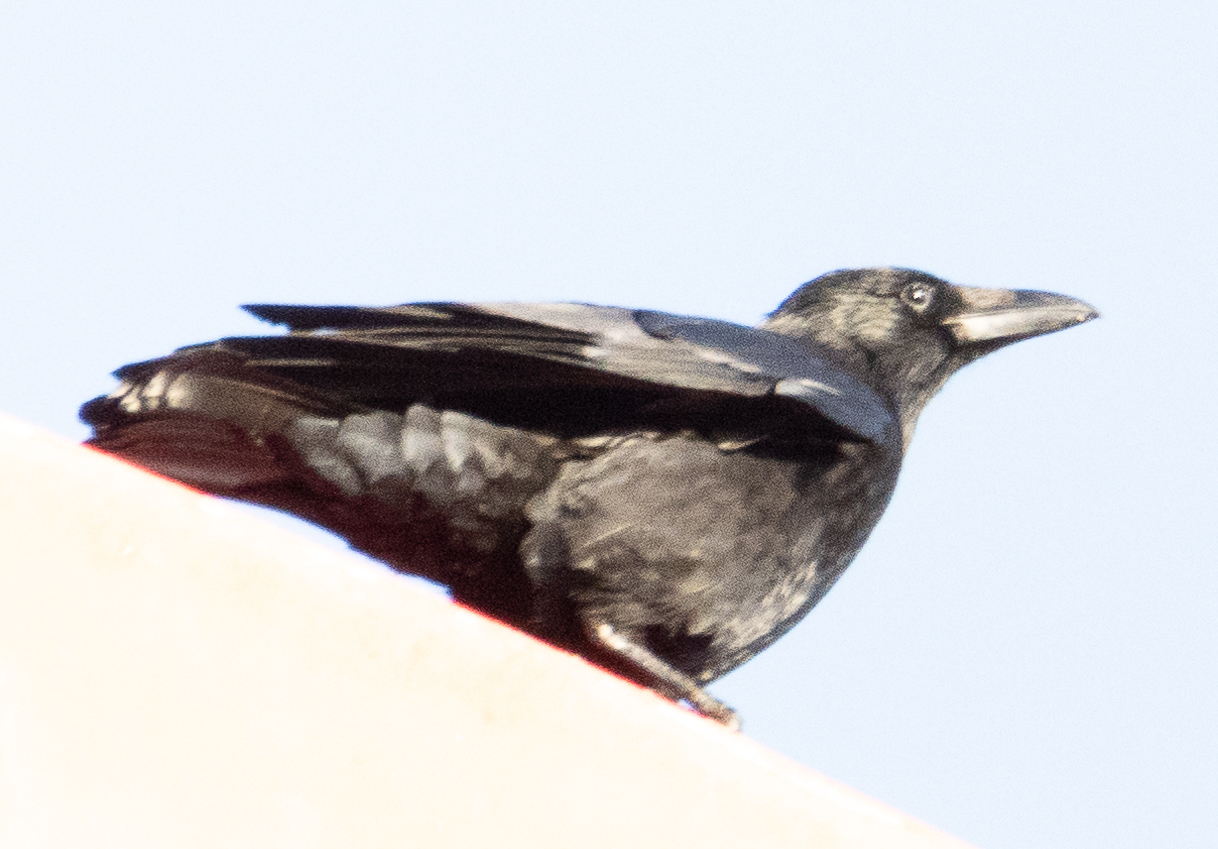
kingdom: Animalia
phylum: Chordata
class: Aves
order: Passeriformes
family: Corvidae
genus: Corvus
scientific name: Corvus corone
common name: Carrion crow
